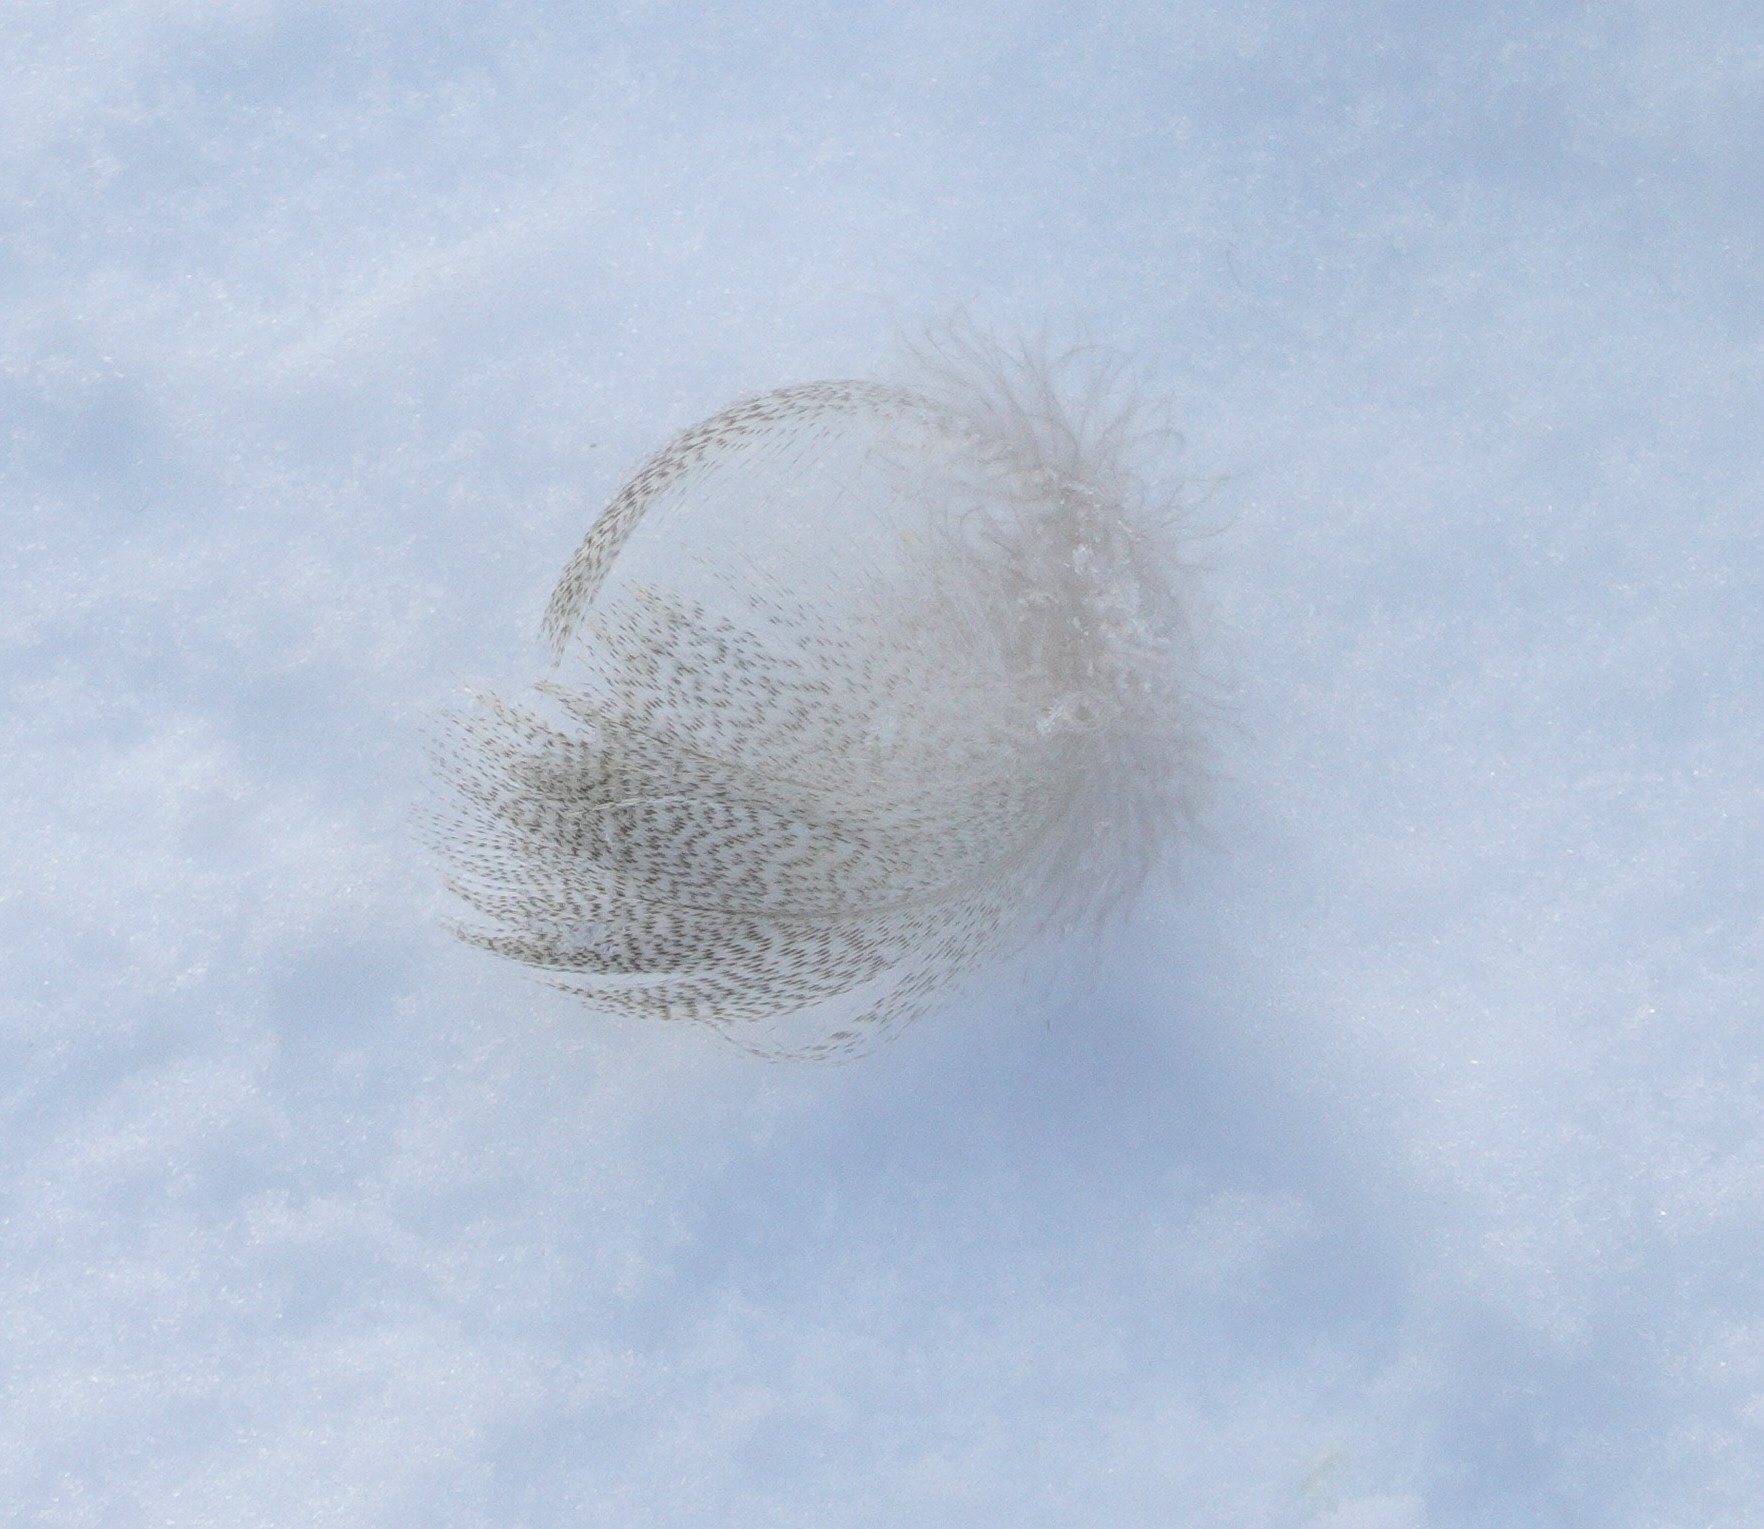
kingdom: Animalia
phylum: Chordata
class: Aves
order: Anseriformes
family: Anatidae
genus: Anas
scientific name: Anas platyrhynchos
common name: Mallard
